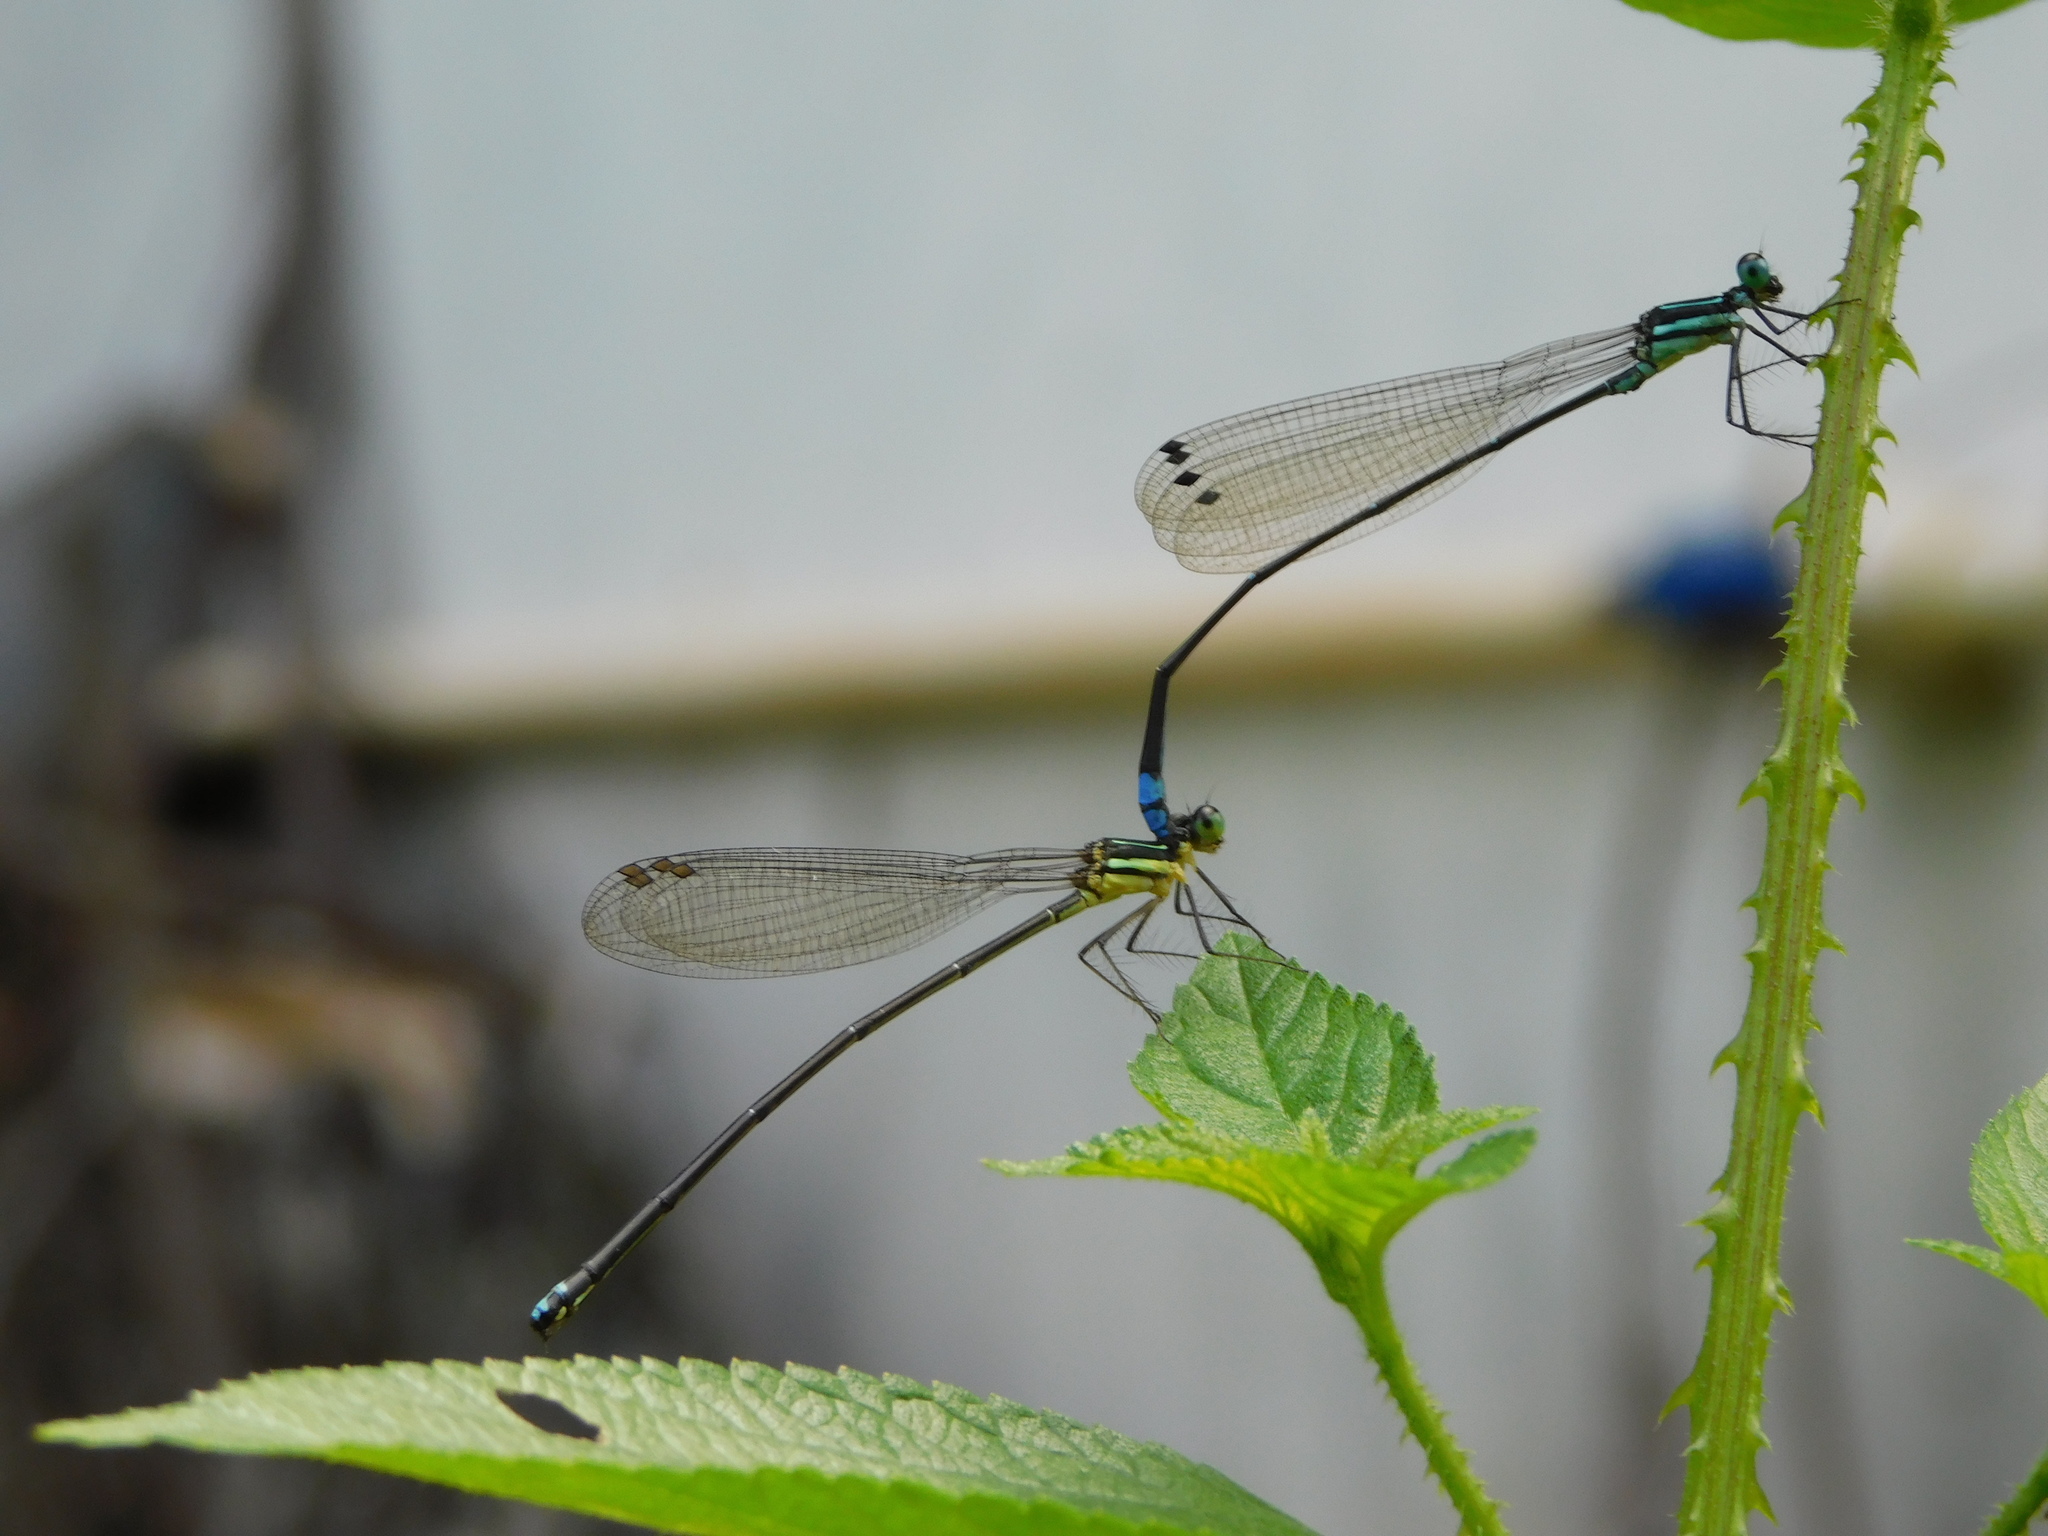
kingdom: Animalia
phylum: Arthropoda
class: Insecta
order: Odonata
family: Platycnemididae
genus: Caconeura
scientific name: Caconeura ramburi
